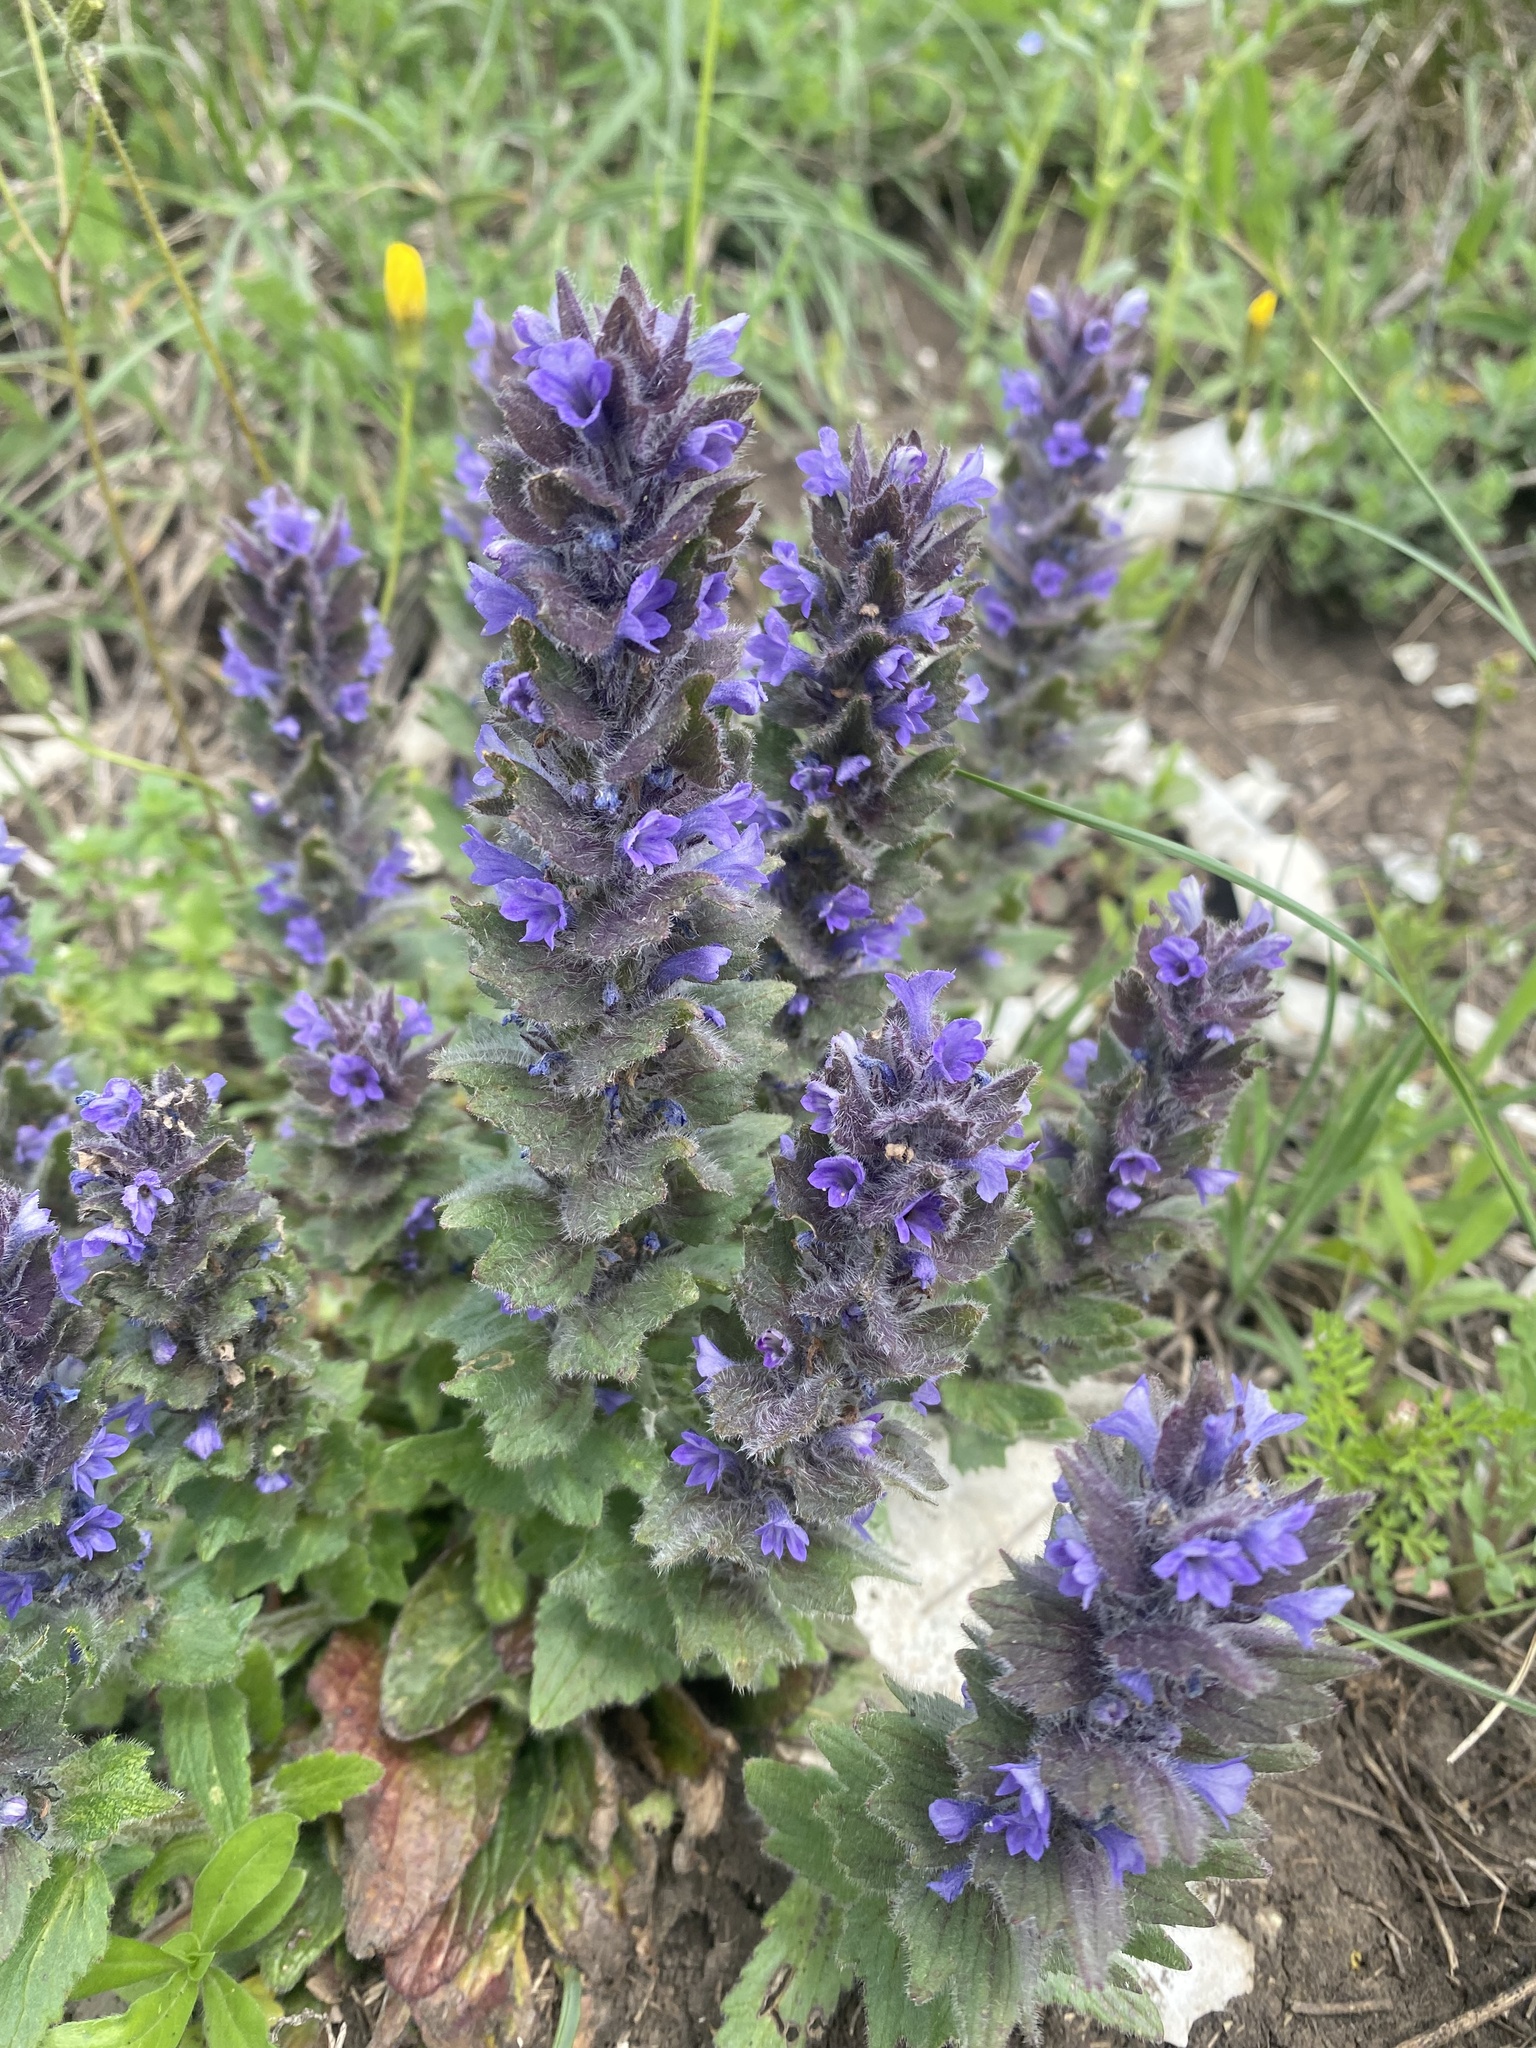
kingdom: Plantae
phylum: Tracheophyta
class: Magnoliopsida
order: Lamiales
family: Lamiaceae
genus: Ajuga
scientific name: Ajuga orientalis
